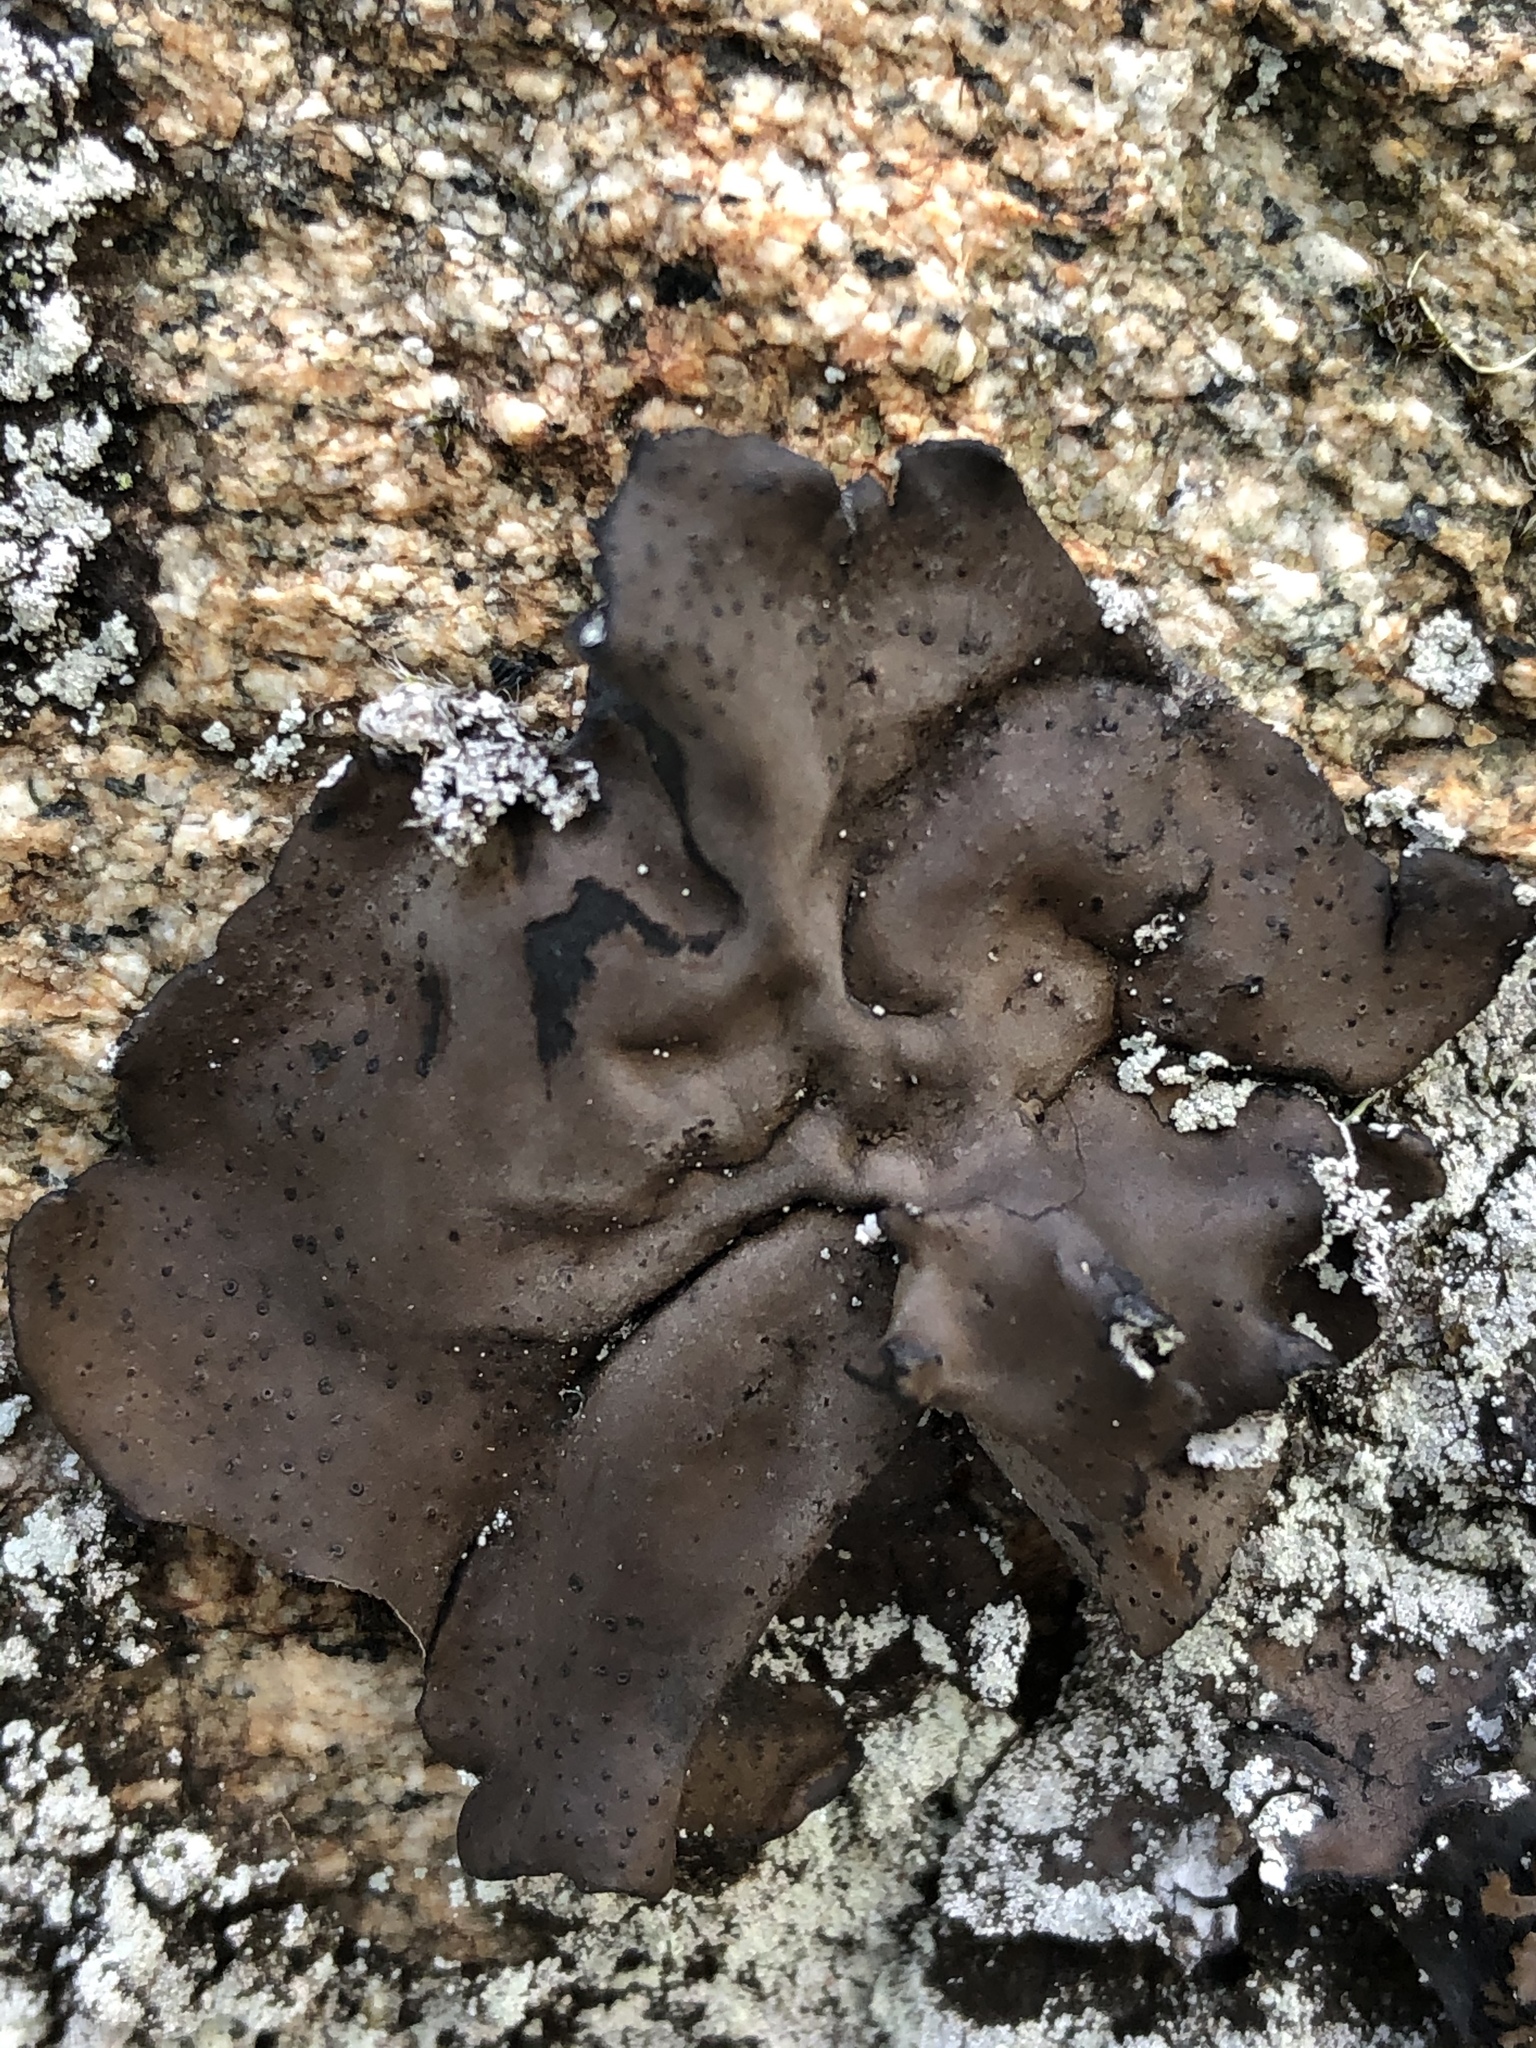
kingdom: Fungi
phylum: Ascomycota
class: Lecanoromycetes
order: Umbilicariales
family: Umbilicariaceae
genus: Umbilicaria
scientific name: Umbilicaria phaea
